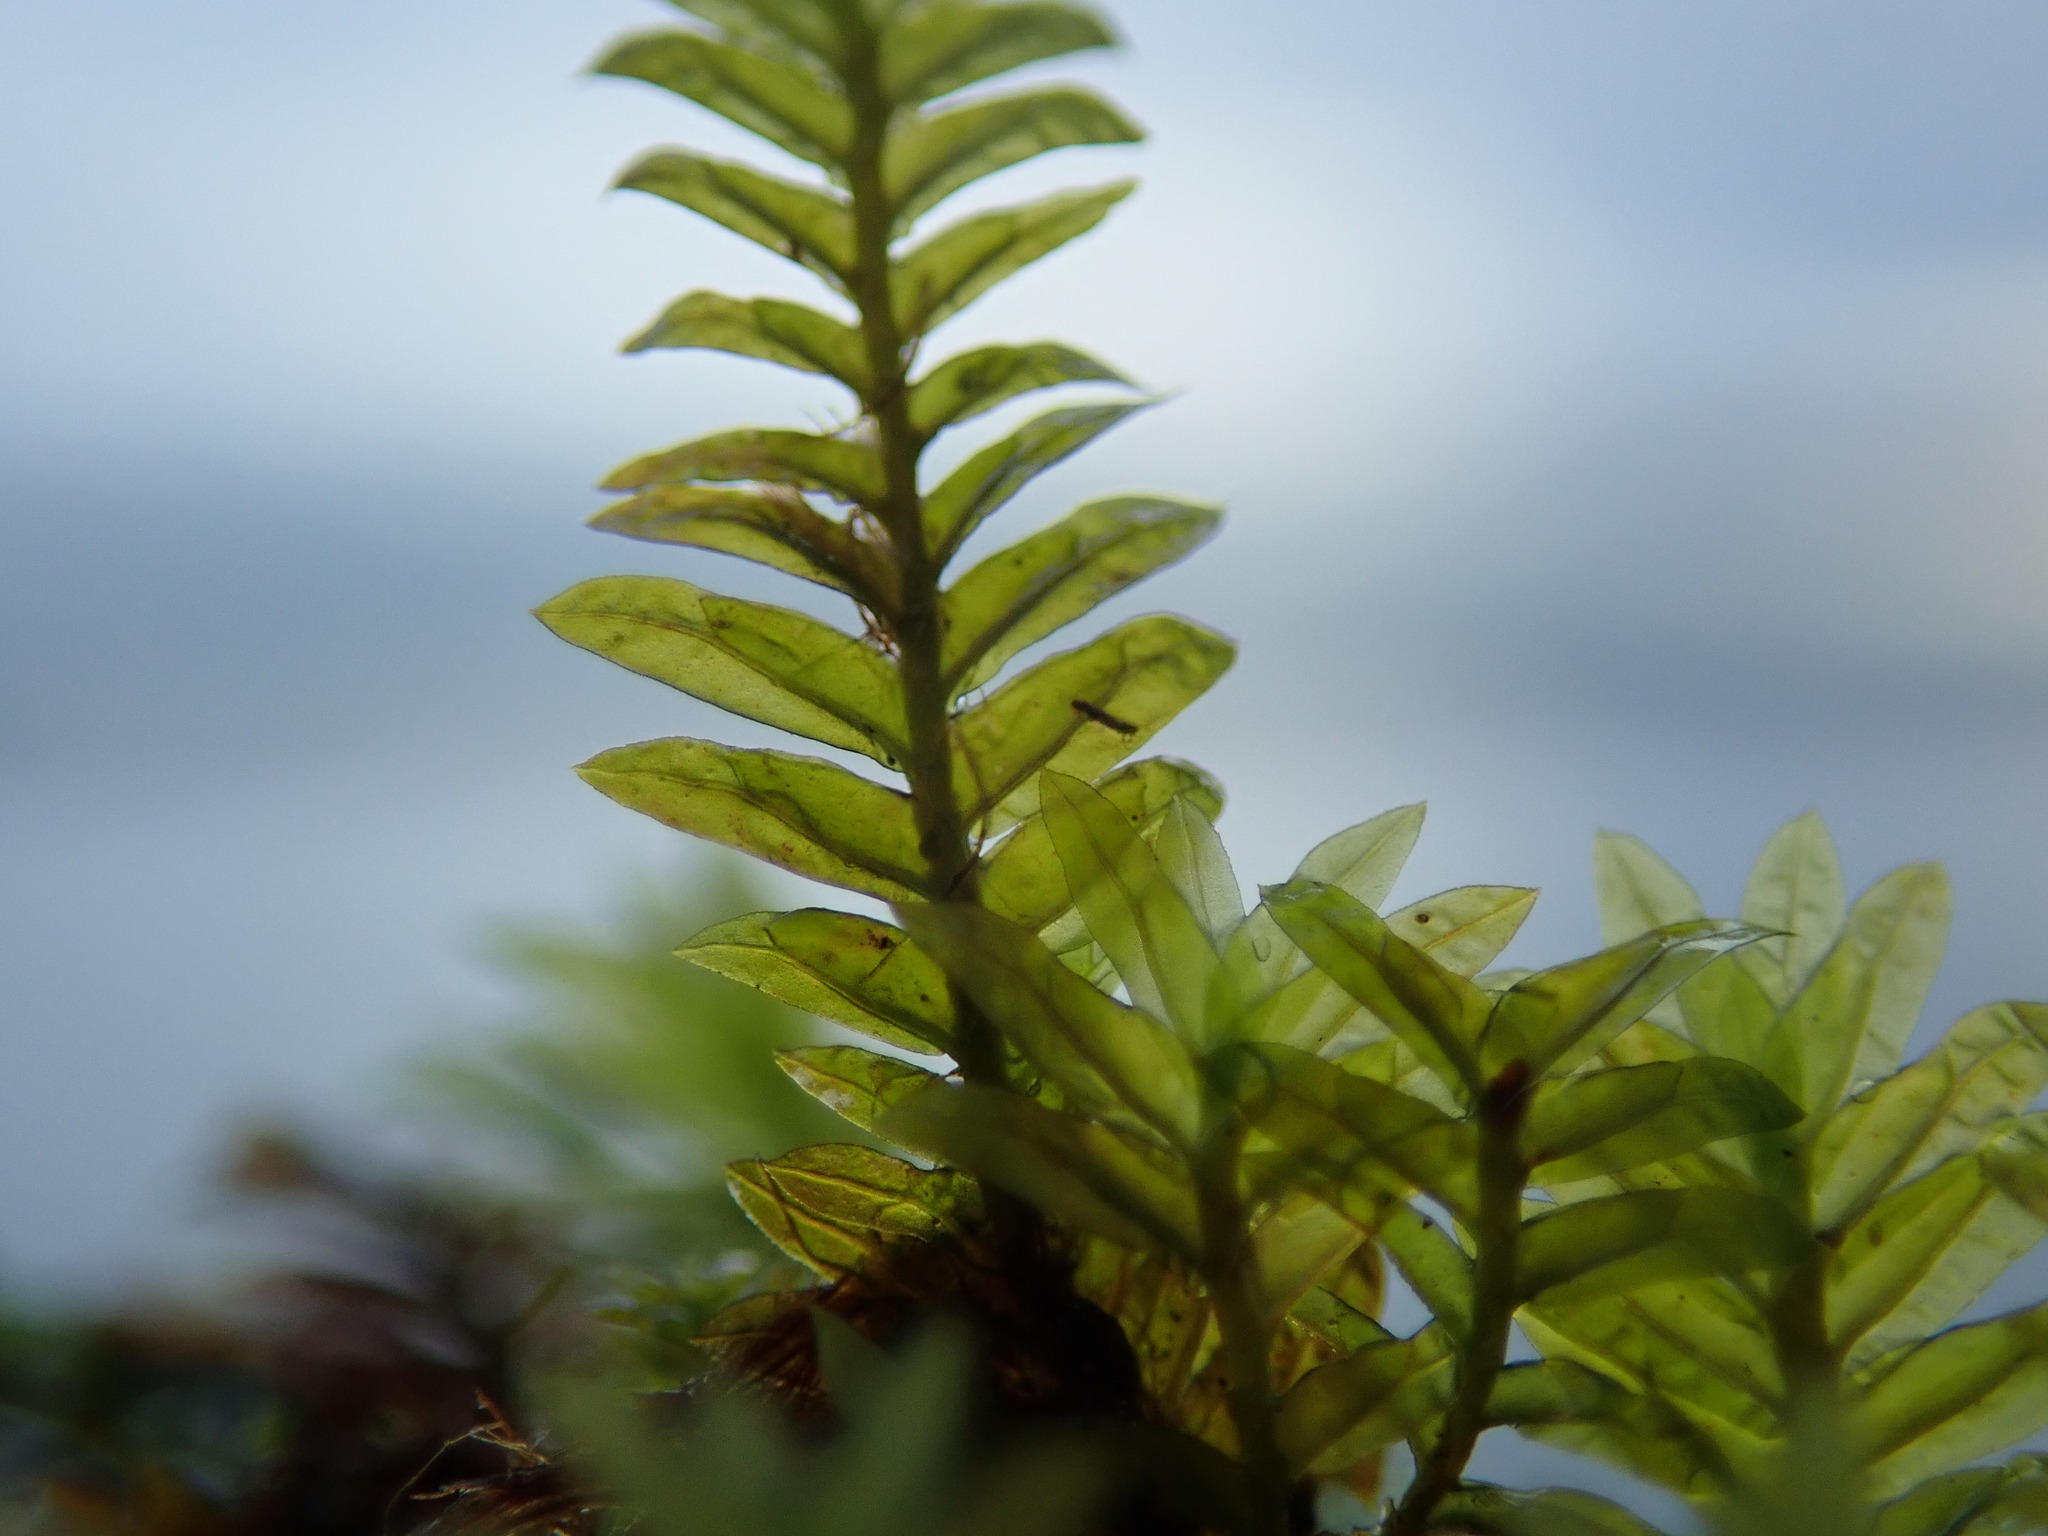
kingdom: Plantae
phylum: Bryophyta
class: Bryopsida
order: Dicranales
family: Fissidentaceae
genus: Fissidens
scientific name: Fissidens adianthoides
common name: Maidenhair pocket moss
